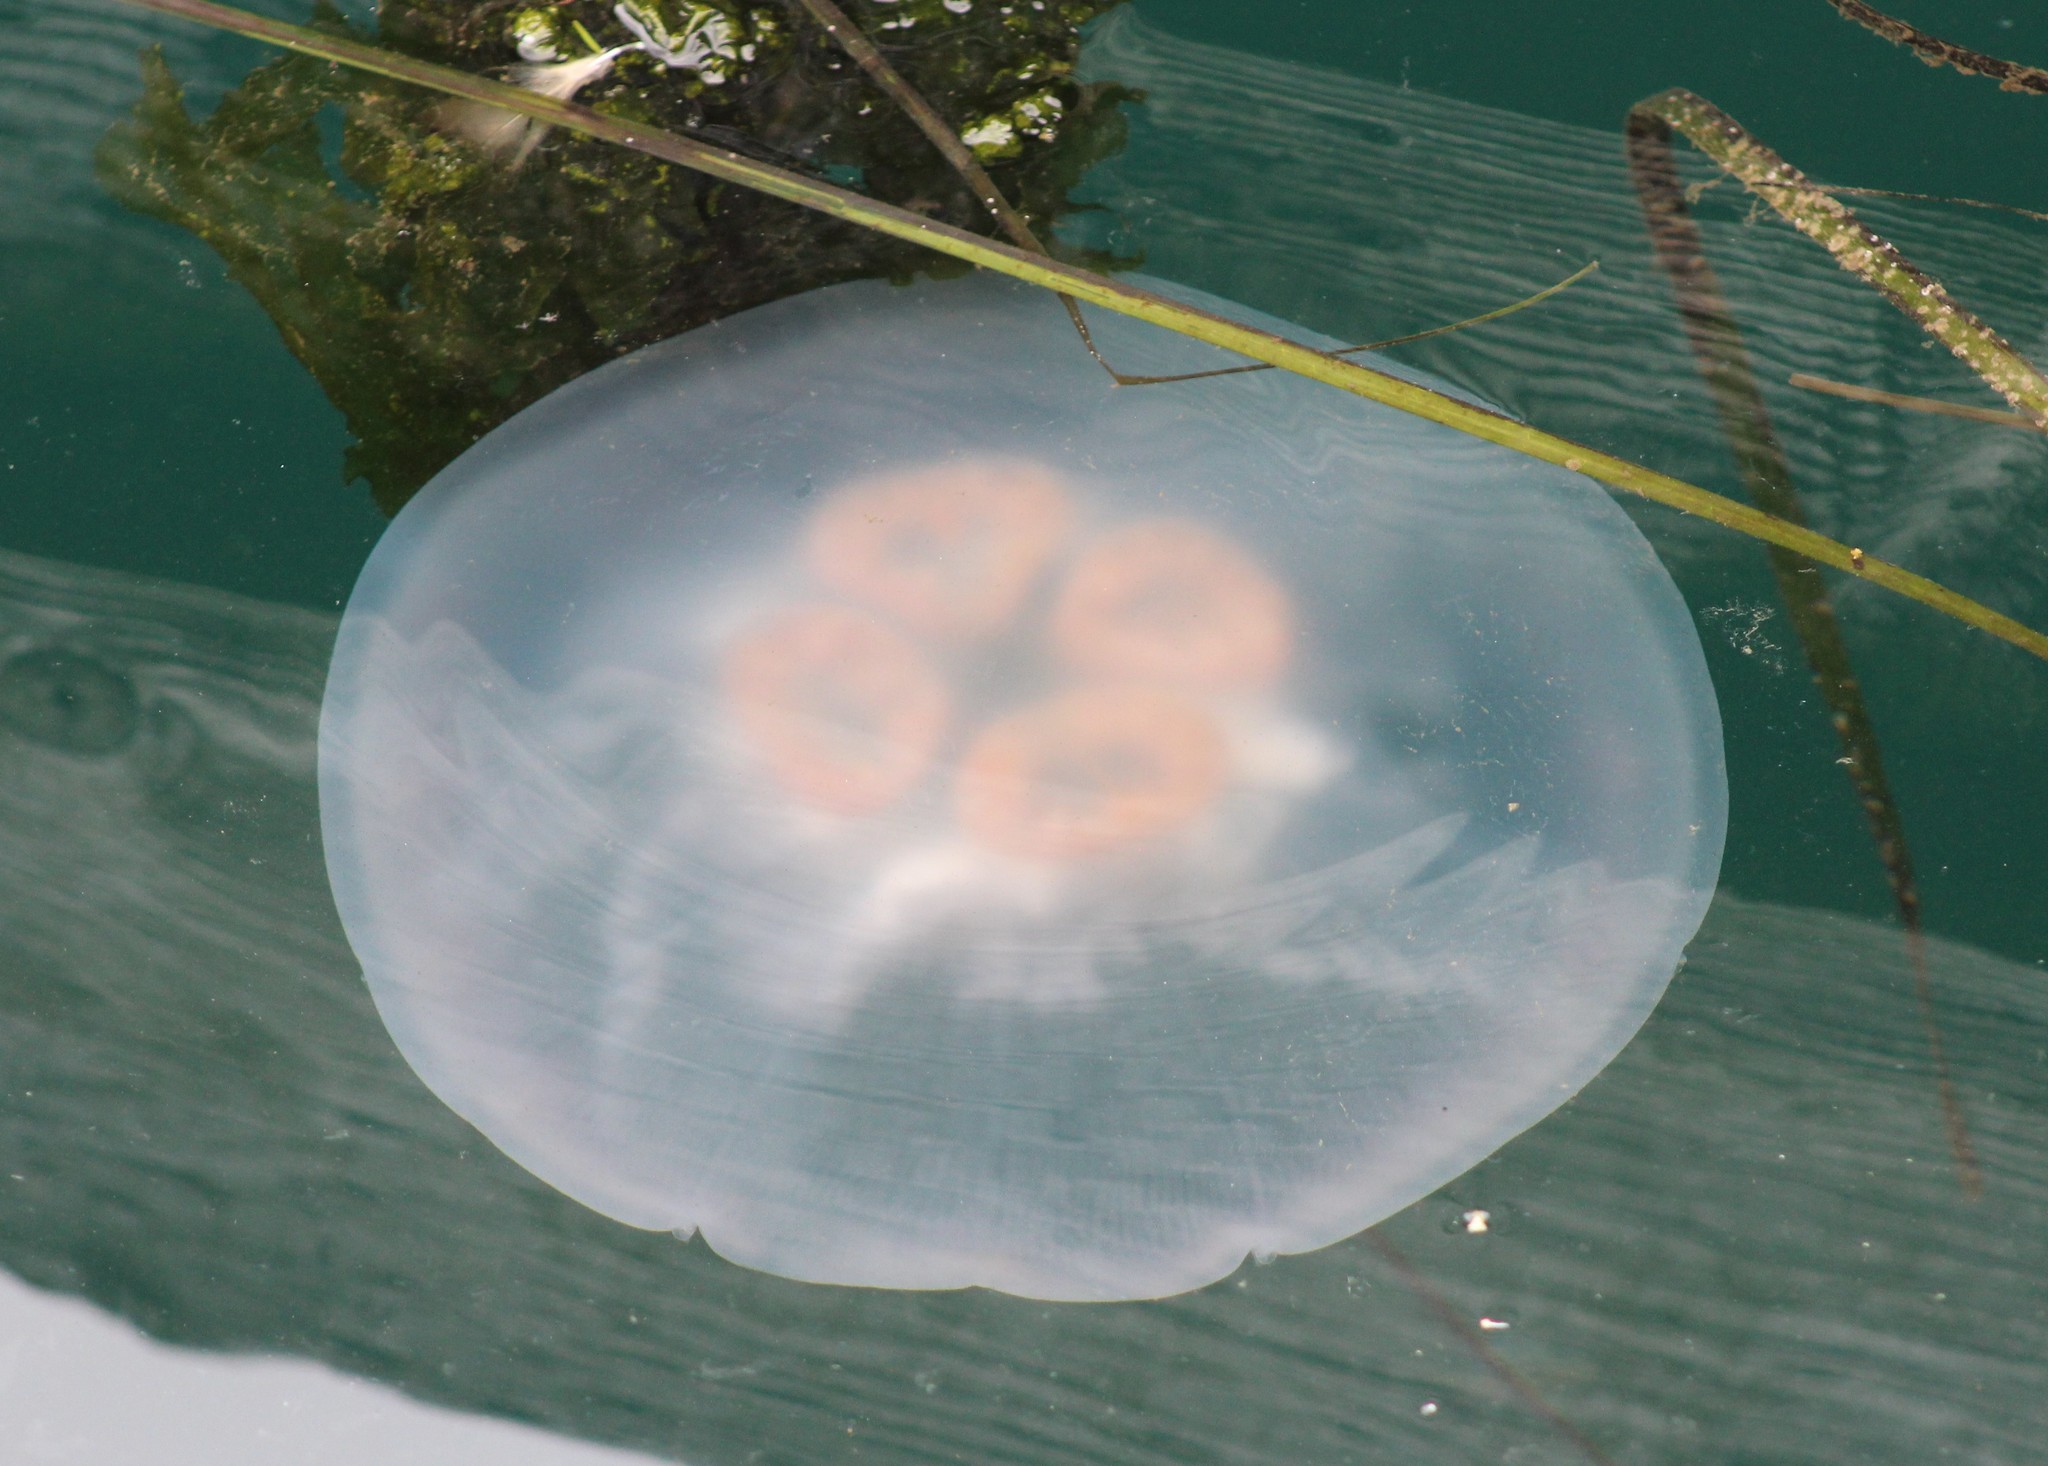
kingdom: Animalia
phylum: Cnidaria
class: Scyphozoa
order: Semaeostomeae
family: Ulmaridae
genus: Aurelia
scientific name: Aurelia labiata
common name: Pacific moon jelly
